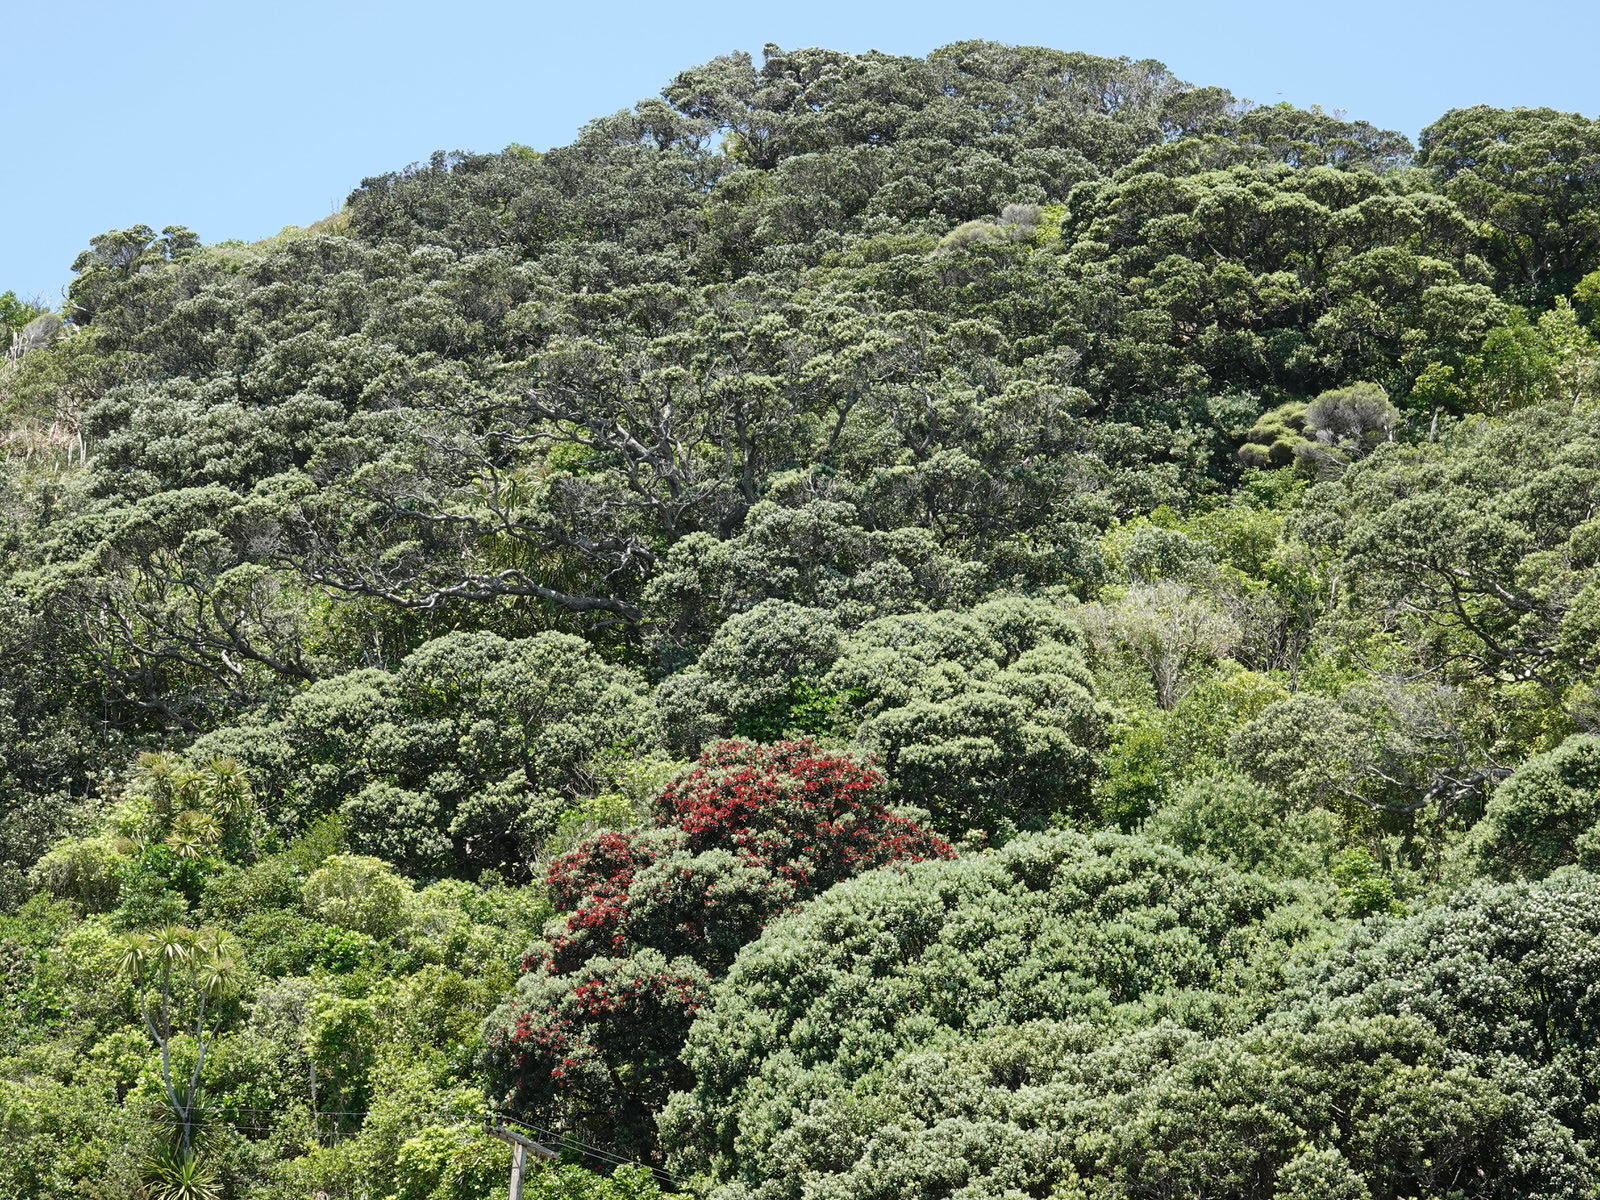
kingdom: Plantae
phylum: Tracheophyta
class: Magnoliopsida
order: Myrtales
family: Myrtaceae
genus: Metrosideros
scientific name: Metrosideros excelsa
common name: New zealand christmastree
